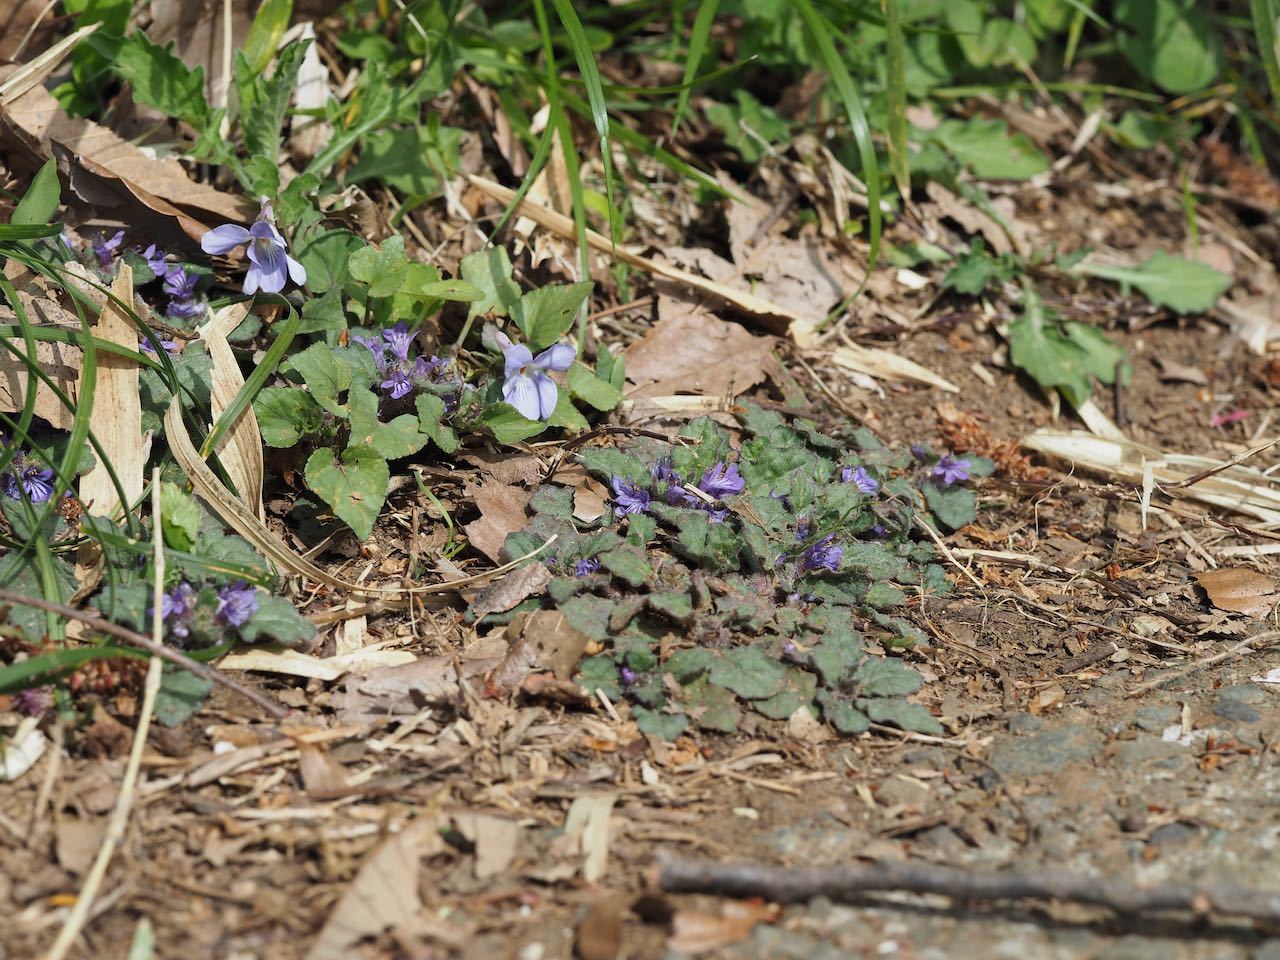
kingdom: Plantae
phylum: Tracheophyta
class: Magnoliopsida
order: Lamiales
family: Lamiaceae
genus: Ajuga
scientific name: Ajuga decumbens
